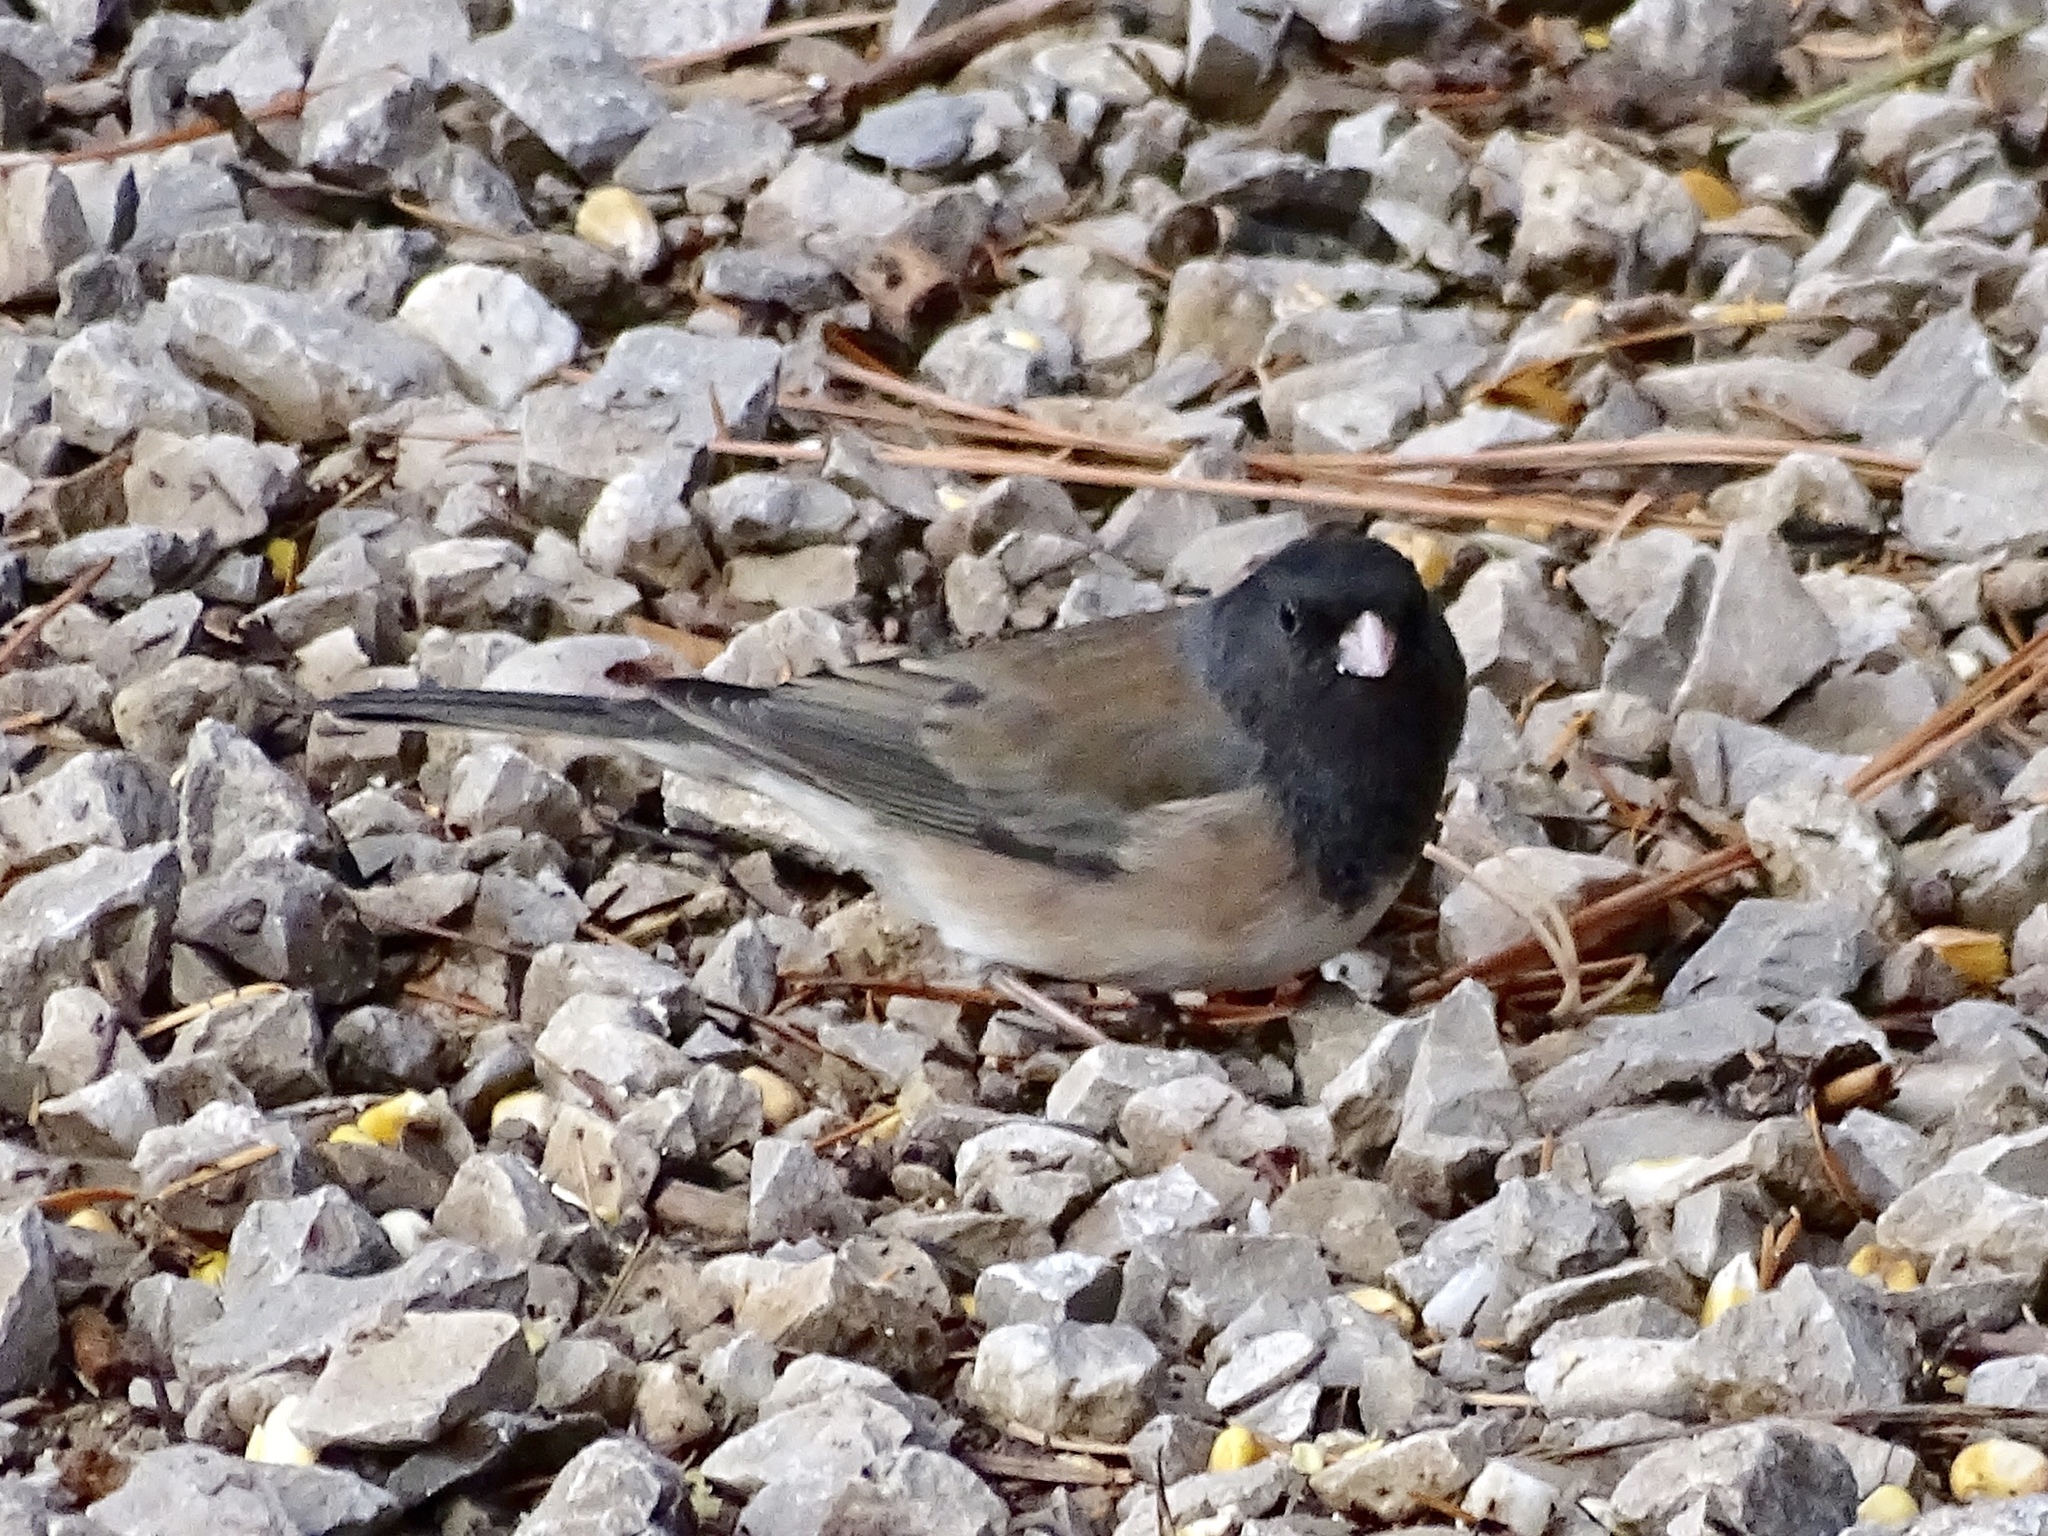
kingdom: Animalia
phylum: Chordata
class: Aves
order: Passeriformes
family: Passerellidae
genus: Junco
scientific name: Junco hyemalis
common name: Dark-eyed junco
